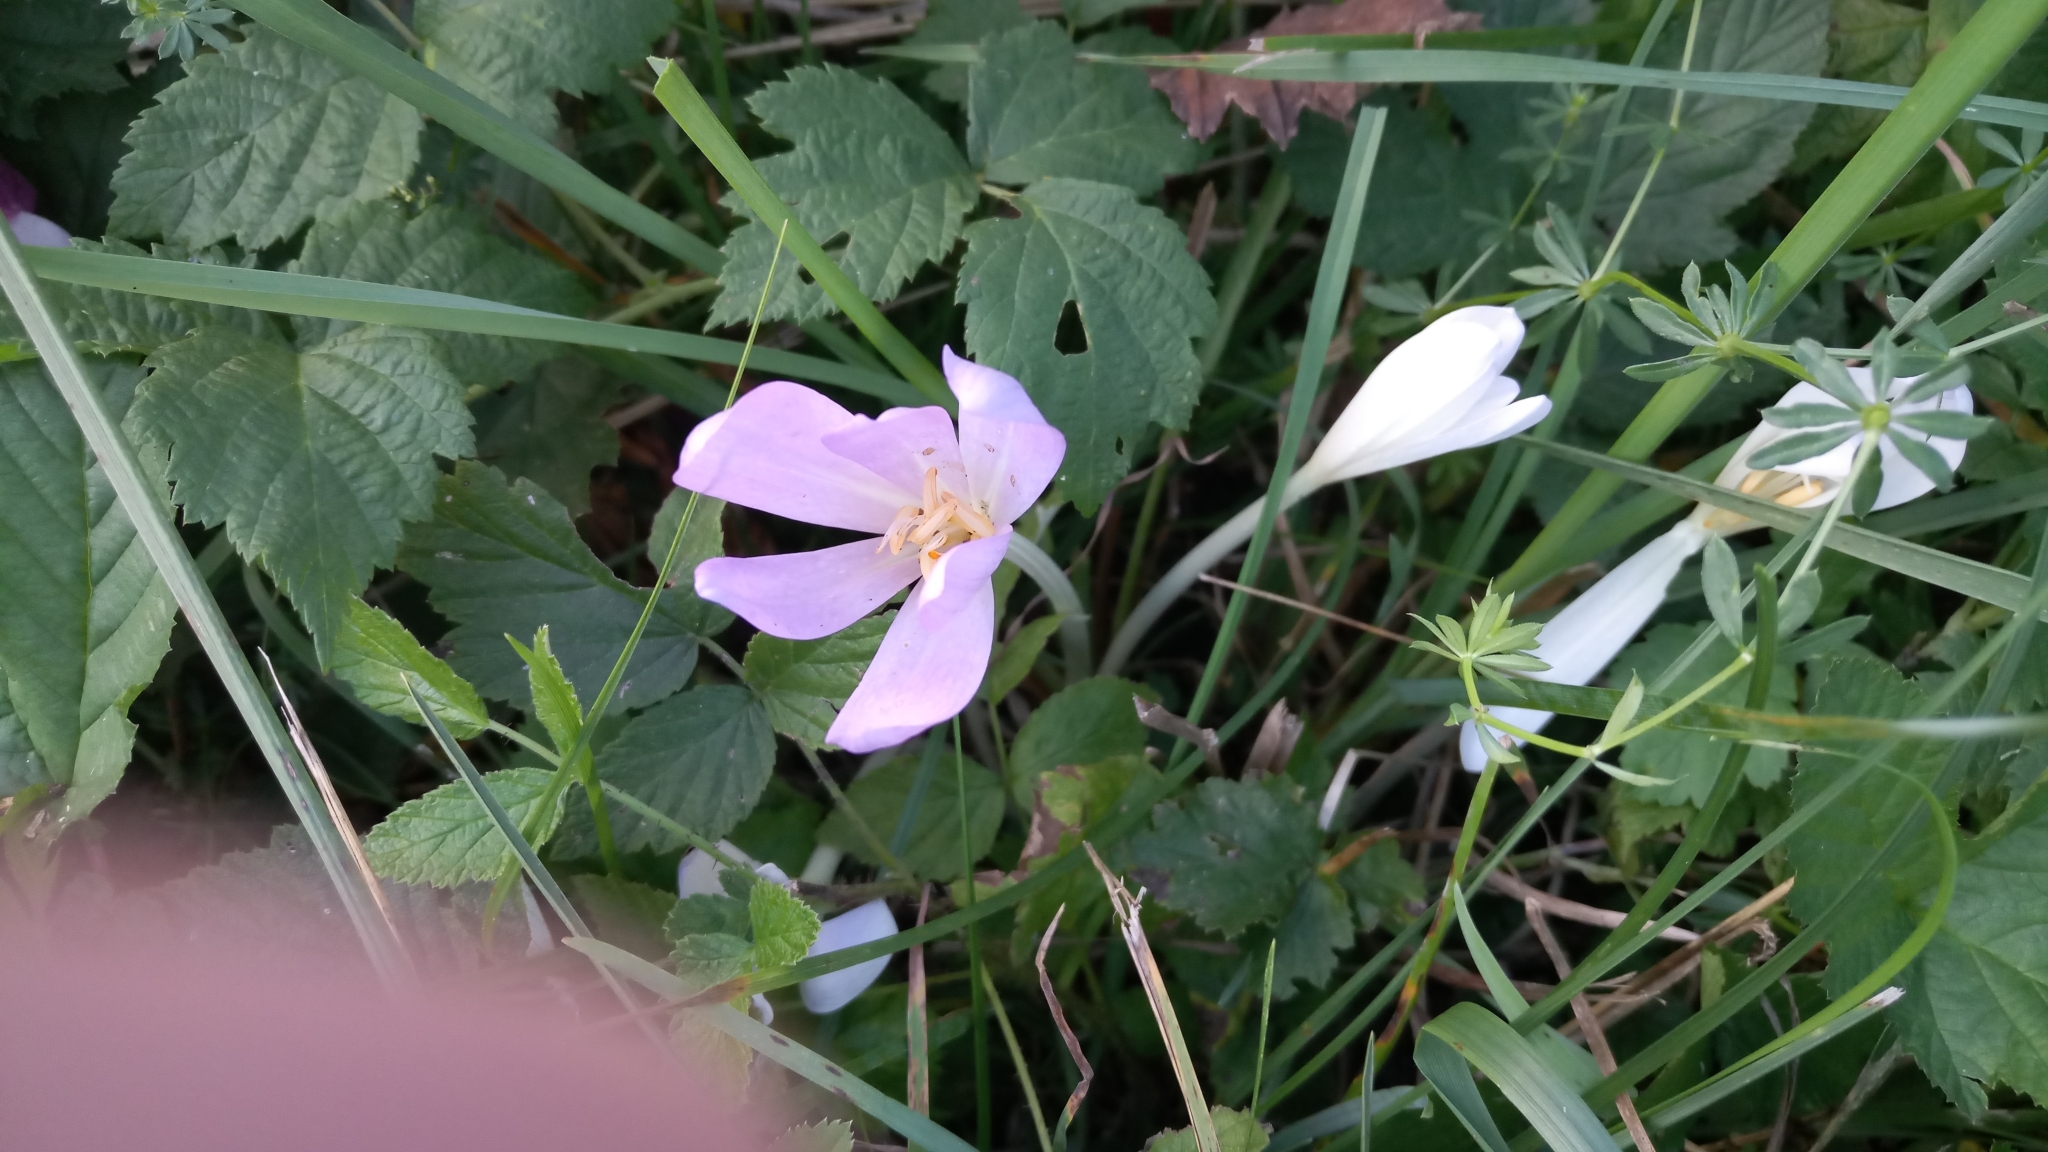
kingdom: Plantae
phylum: Tracheophyta
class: Liliopsida
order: Liliales
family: Colchicaceae
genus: Colchicum
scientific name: Colchicum autumnale
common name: Autumn crocus
